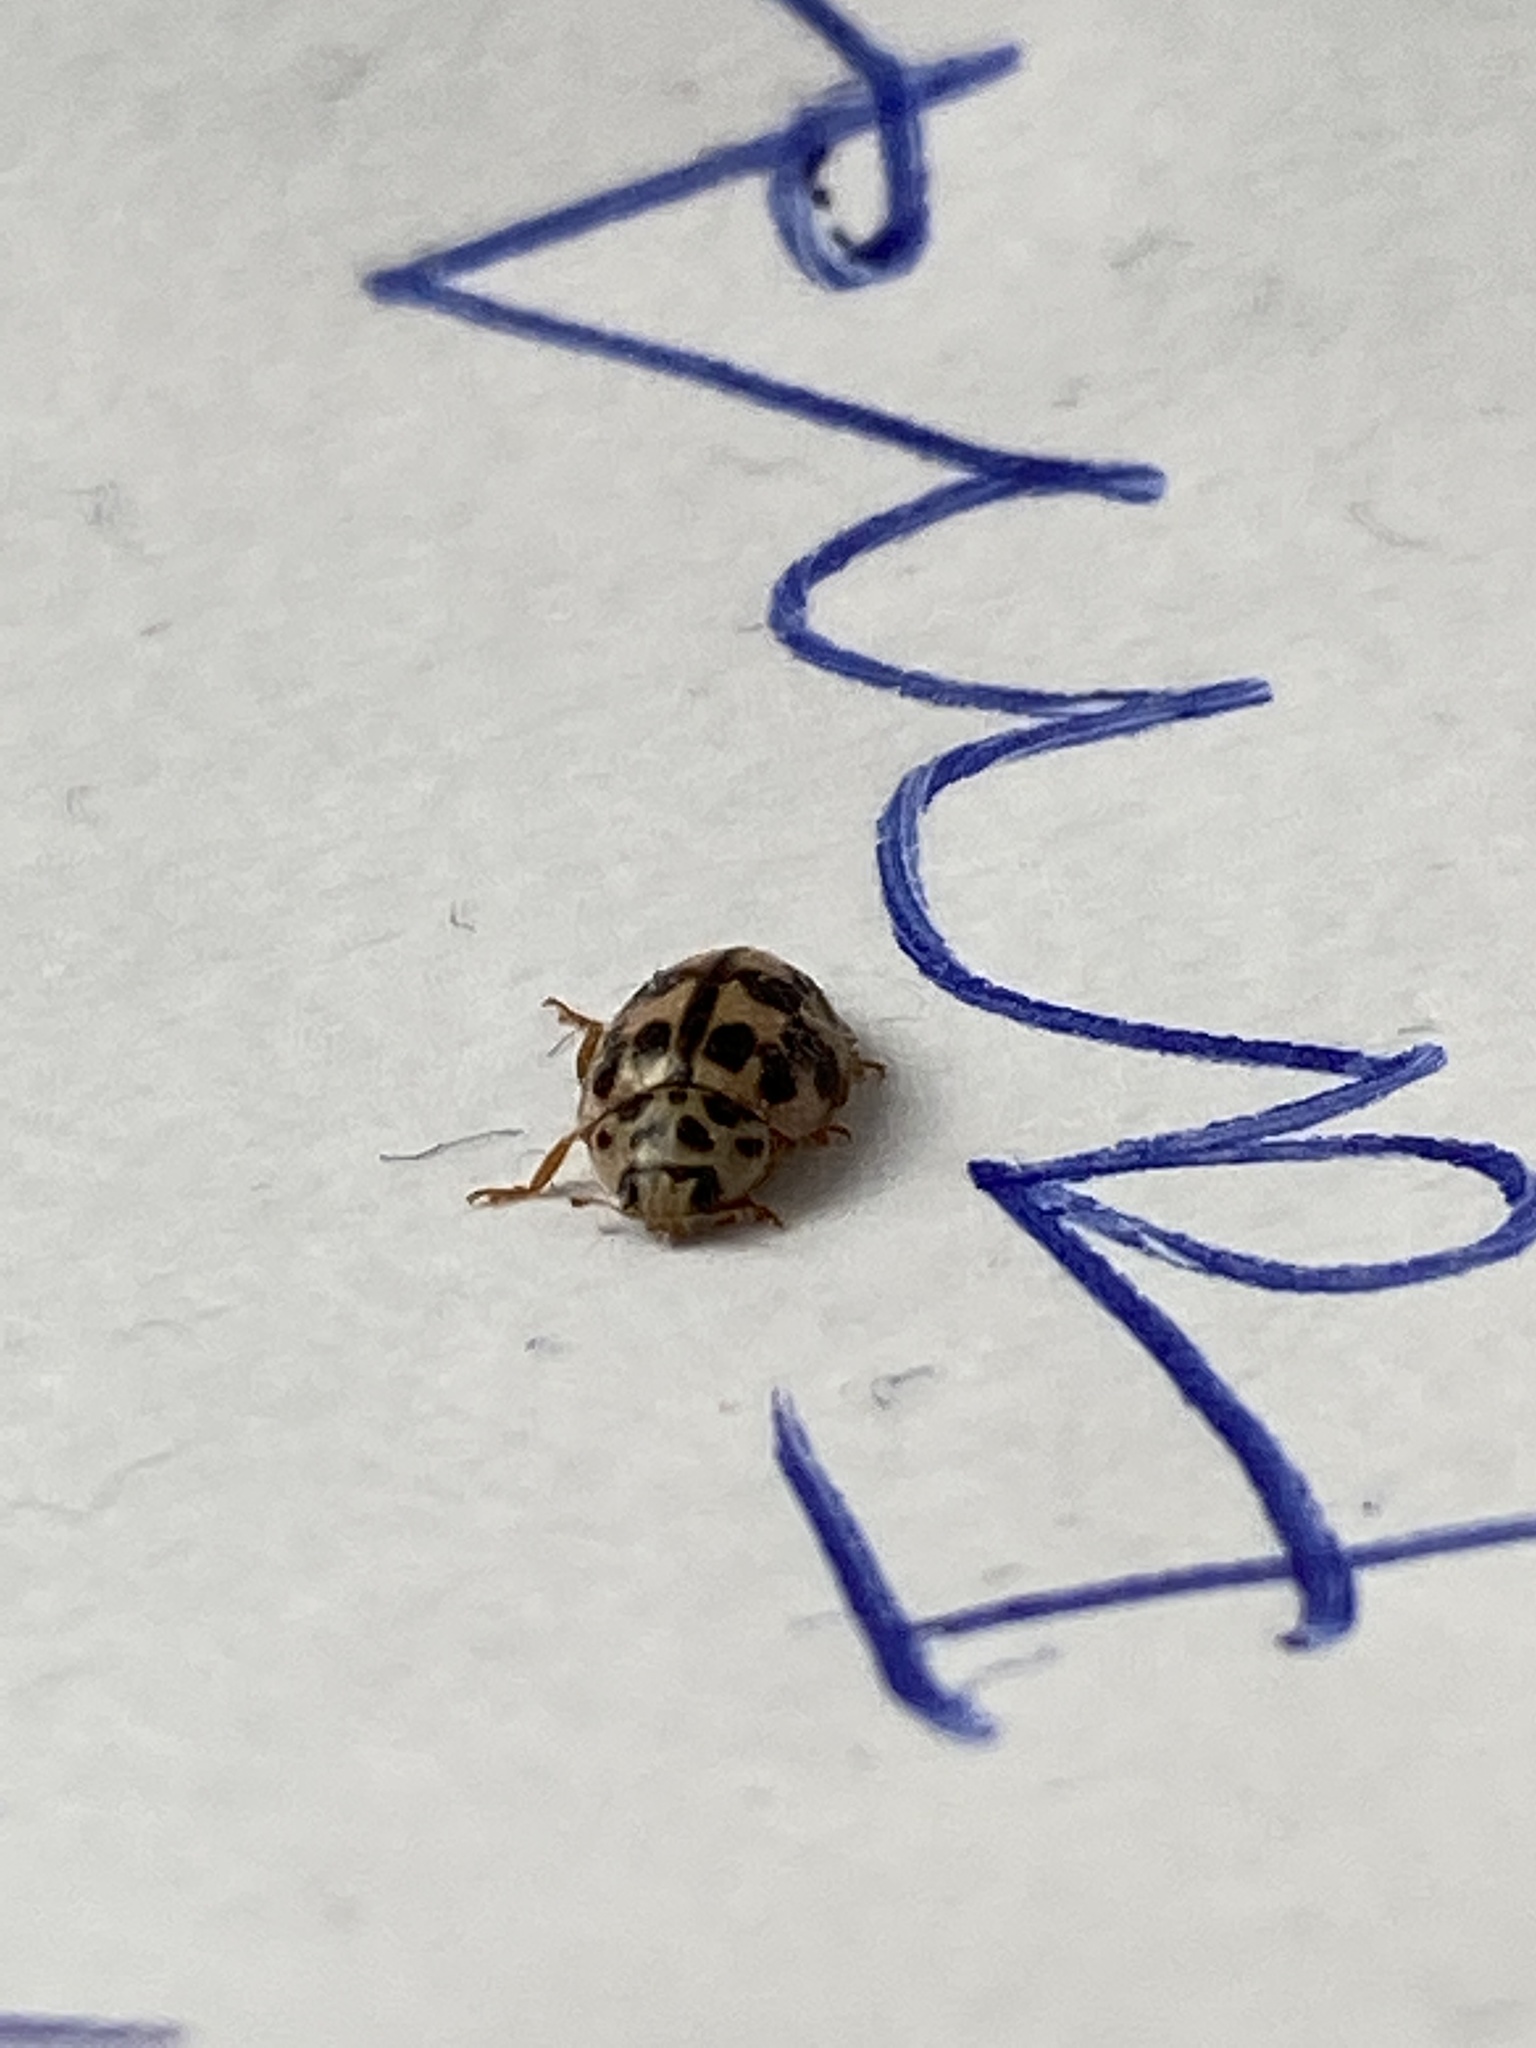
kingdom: Animalia
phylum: Arthropoda
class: Insecta
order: Coleoptera
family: Coccinellidae
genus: Oenopia
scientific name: Oenopia conglobata
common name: Ladybird beetle
